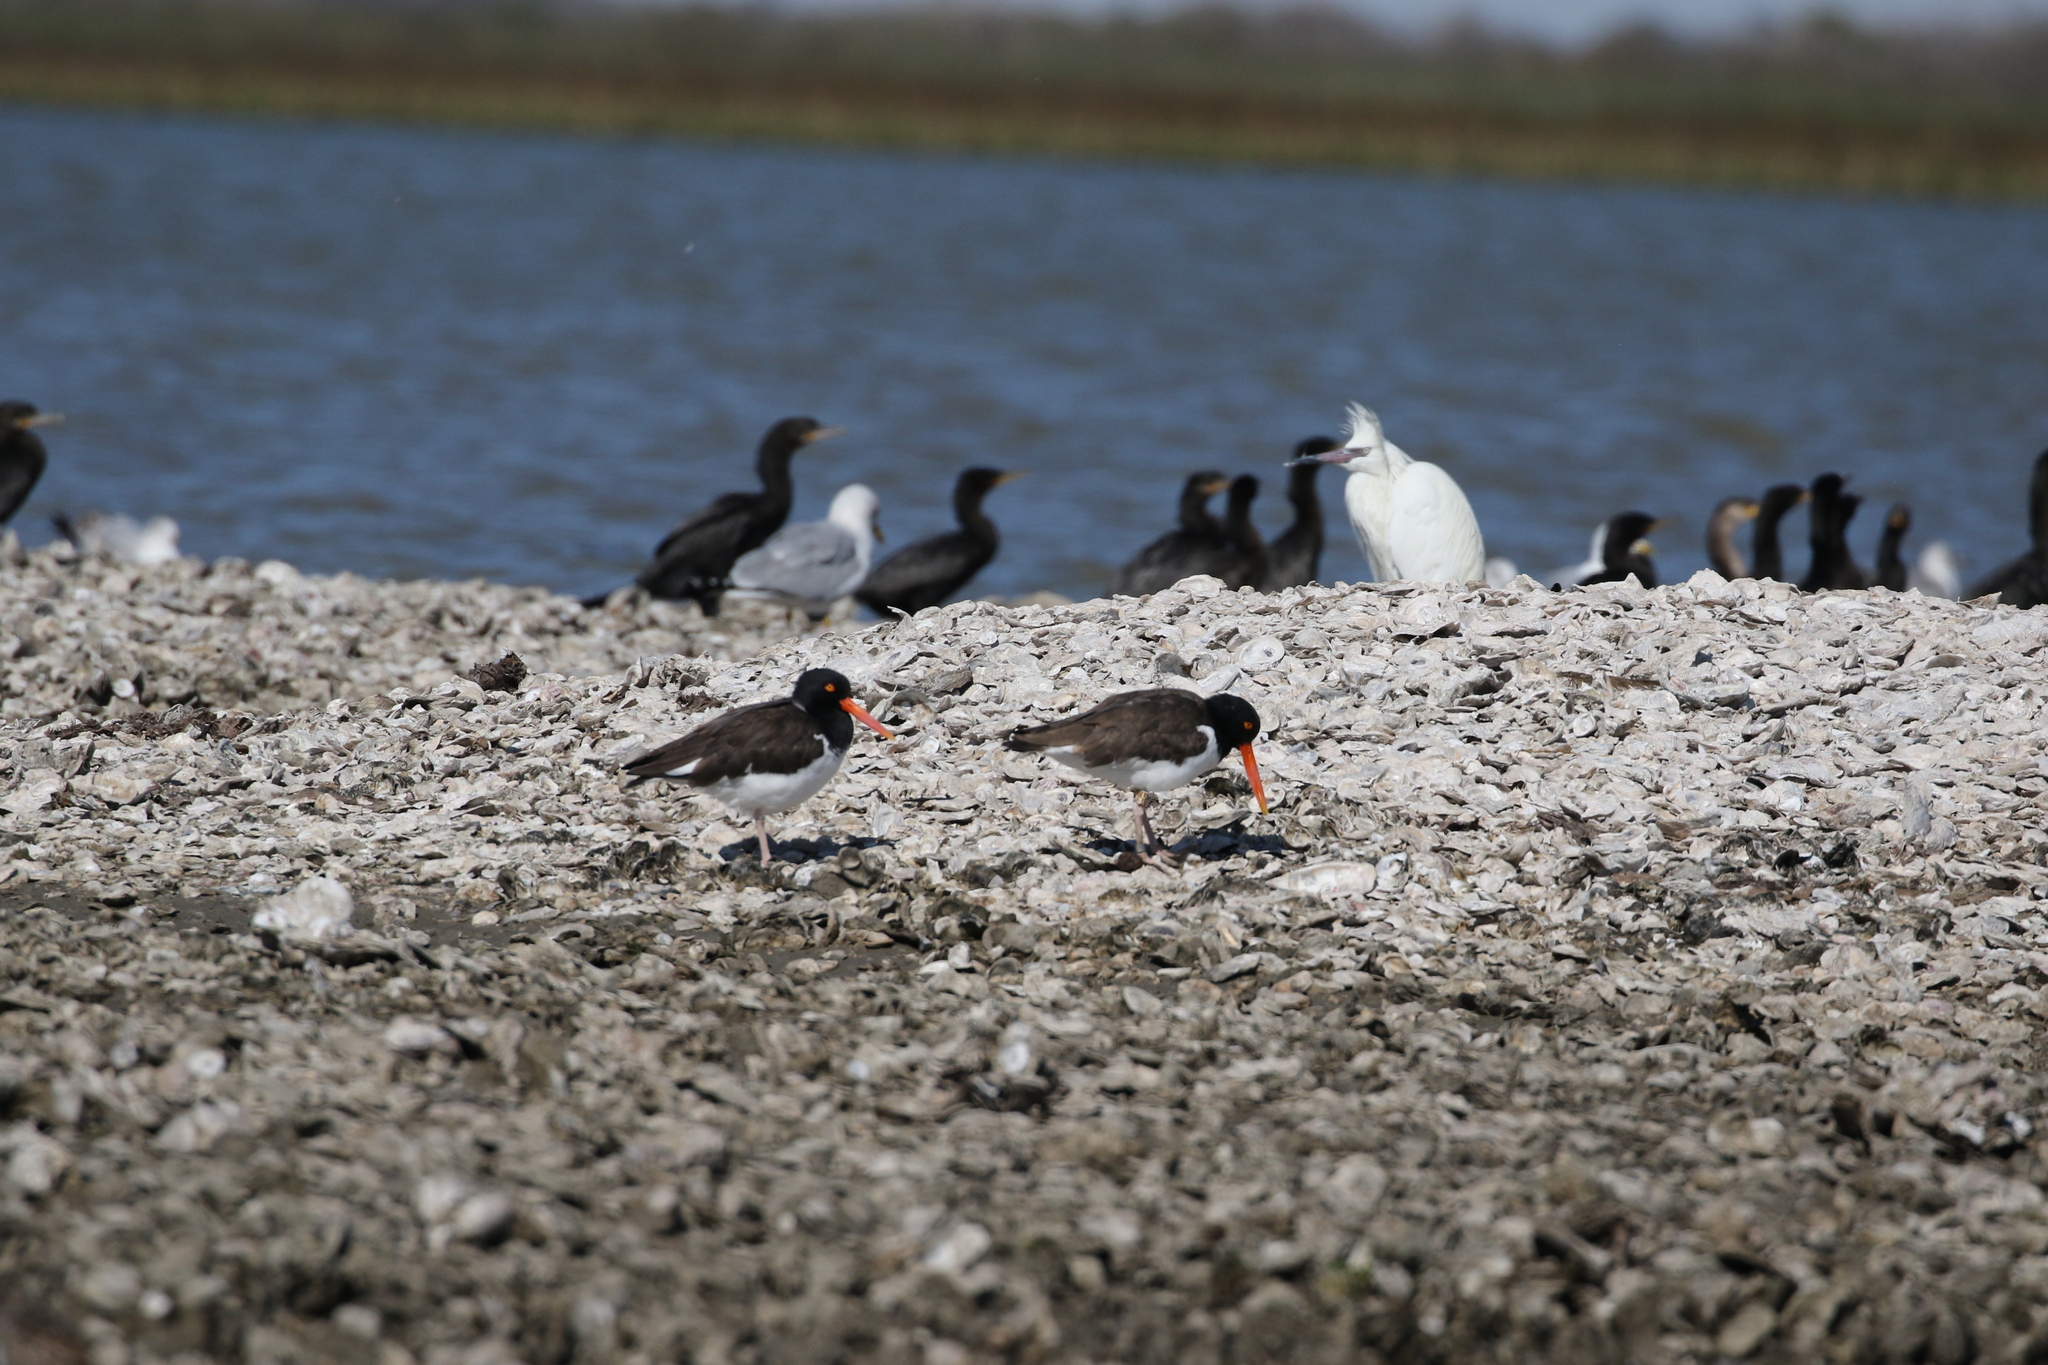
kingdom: Animalia
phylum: Chordata
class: Aves
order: Charadriiformes
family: Haematopodidae
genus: Haematopus
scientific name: Haematopus palliatus
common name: American oystercatcher
